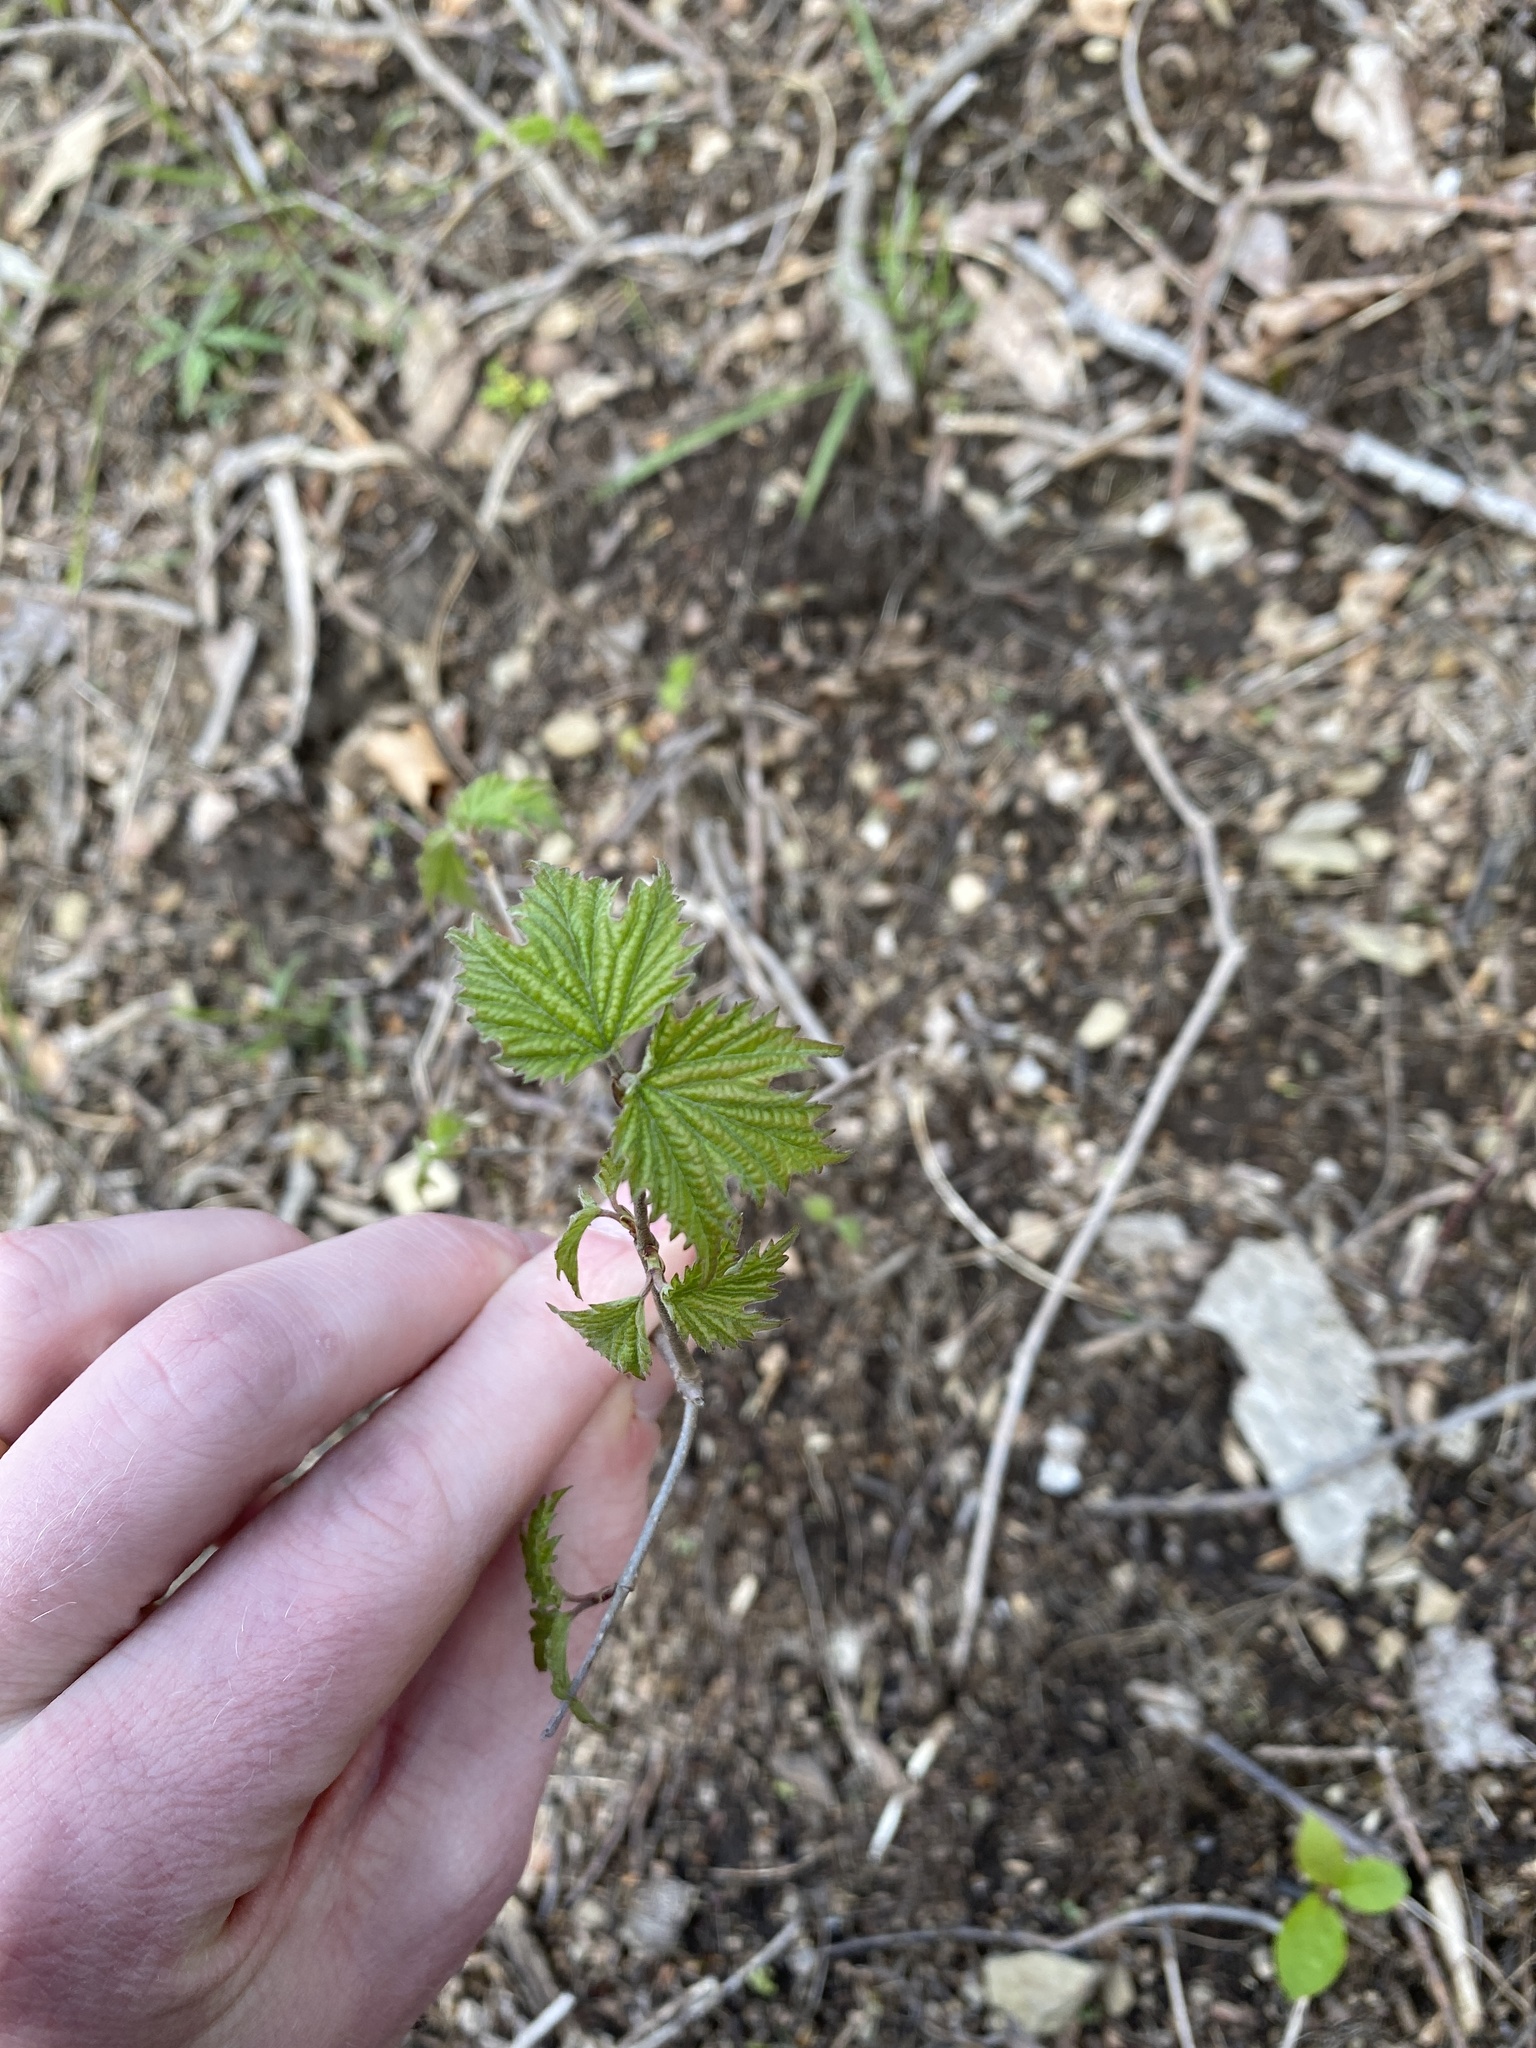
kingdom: Plantae
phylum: Tracheophyta
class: Magnoliopsida
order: Dipsacales
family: Viburnaceae
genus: Viburnum
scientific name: Viburnum acerifolium
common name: Dockmackie
